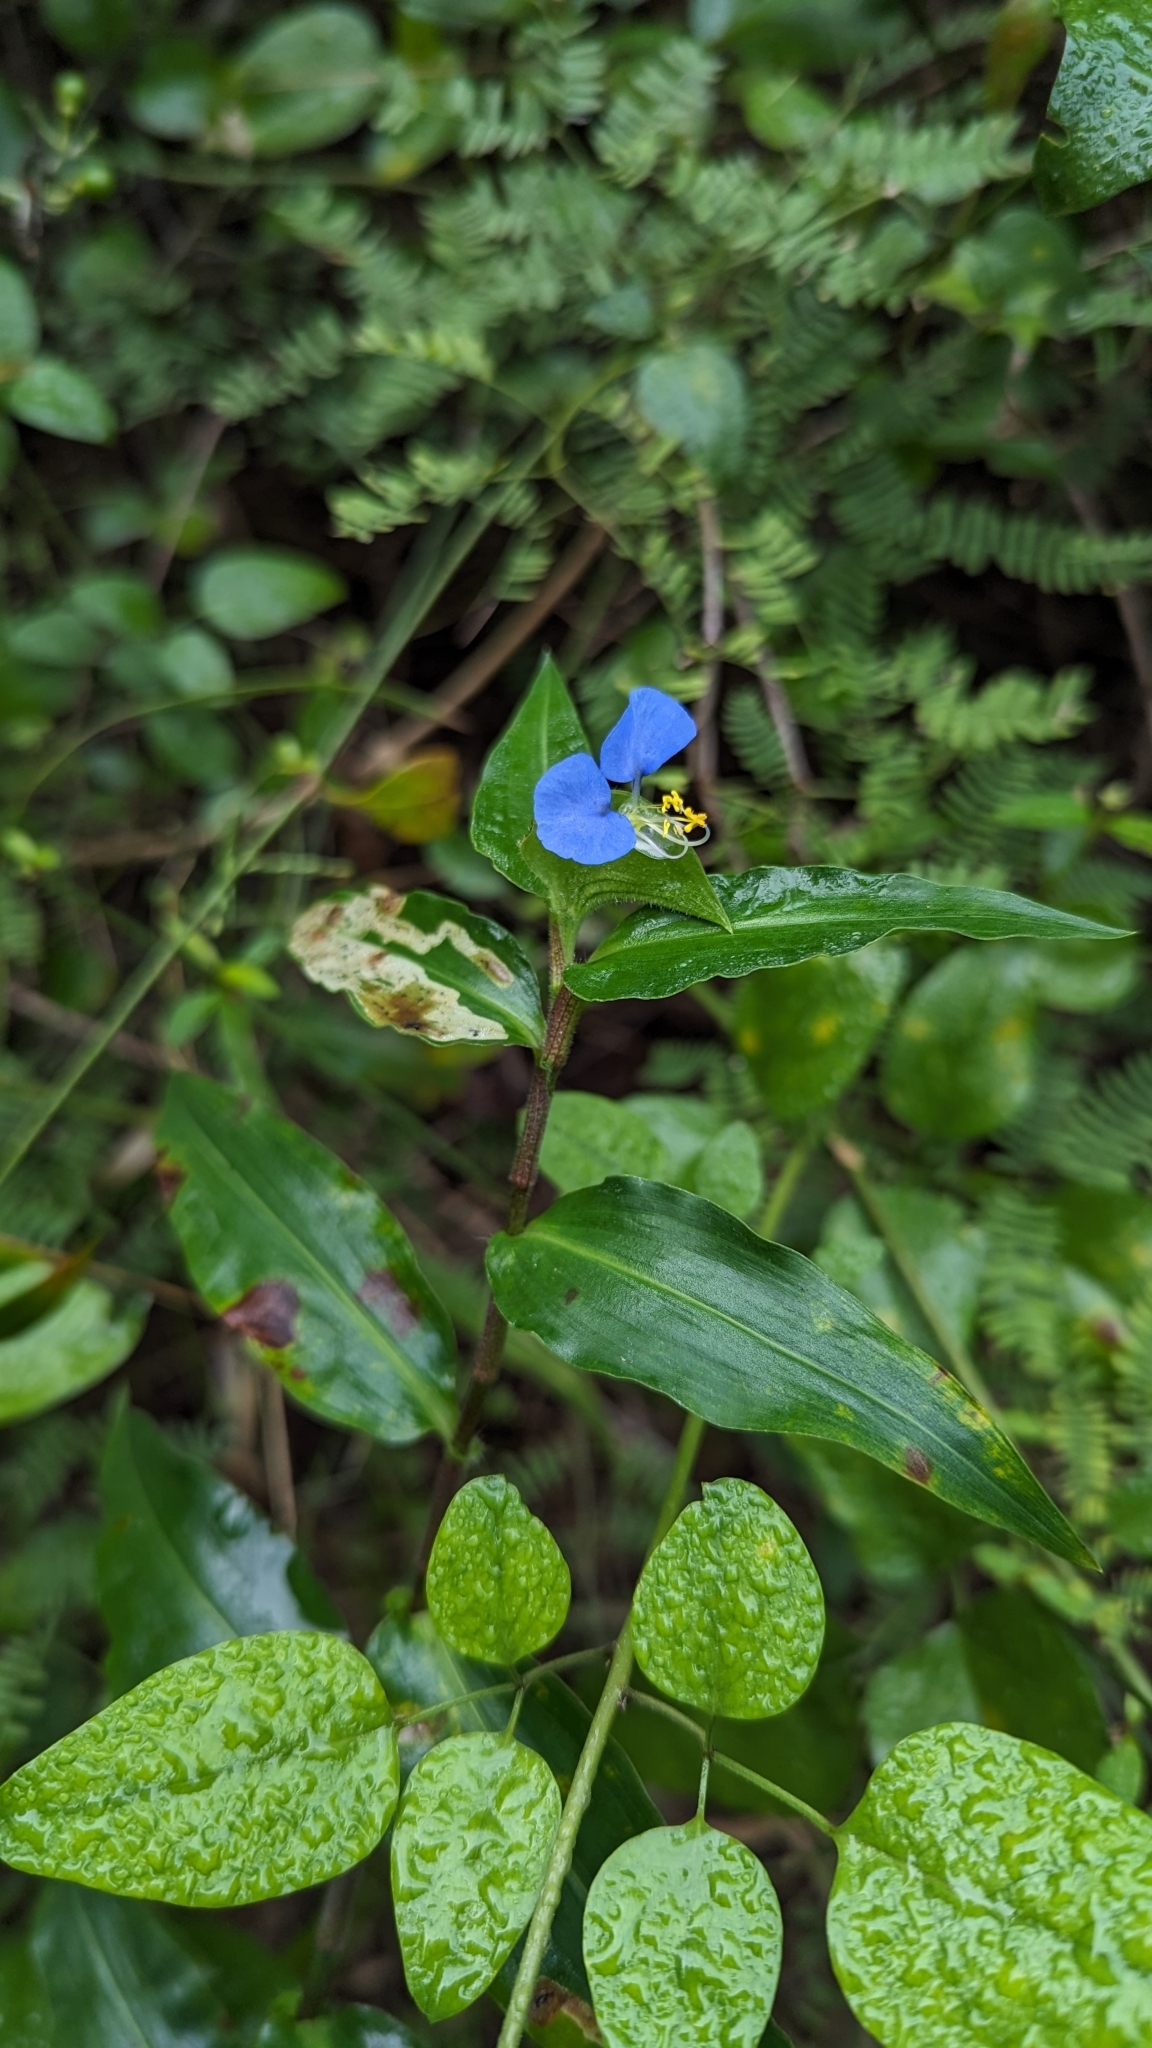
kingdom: Plantae
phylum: Tracheophyta
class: Liliopsida
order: Commelinales
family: Commelinaceae
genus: Commelina
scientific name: Commelina erecta
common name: Blousel blommetjie
